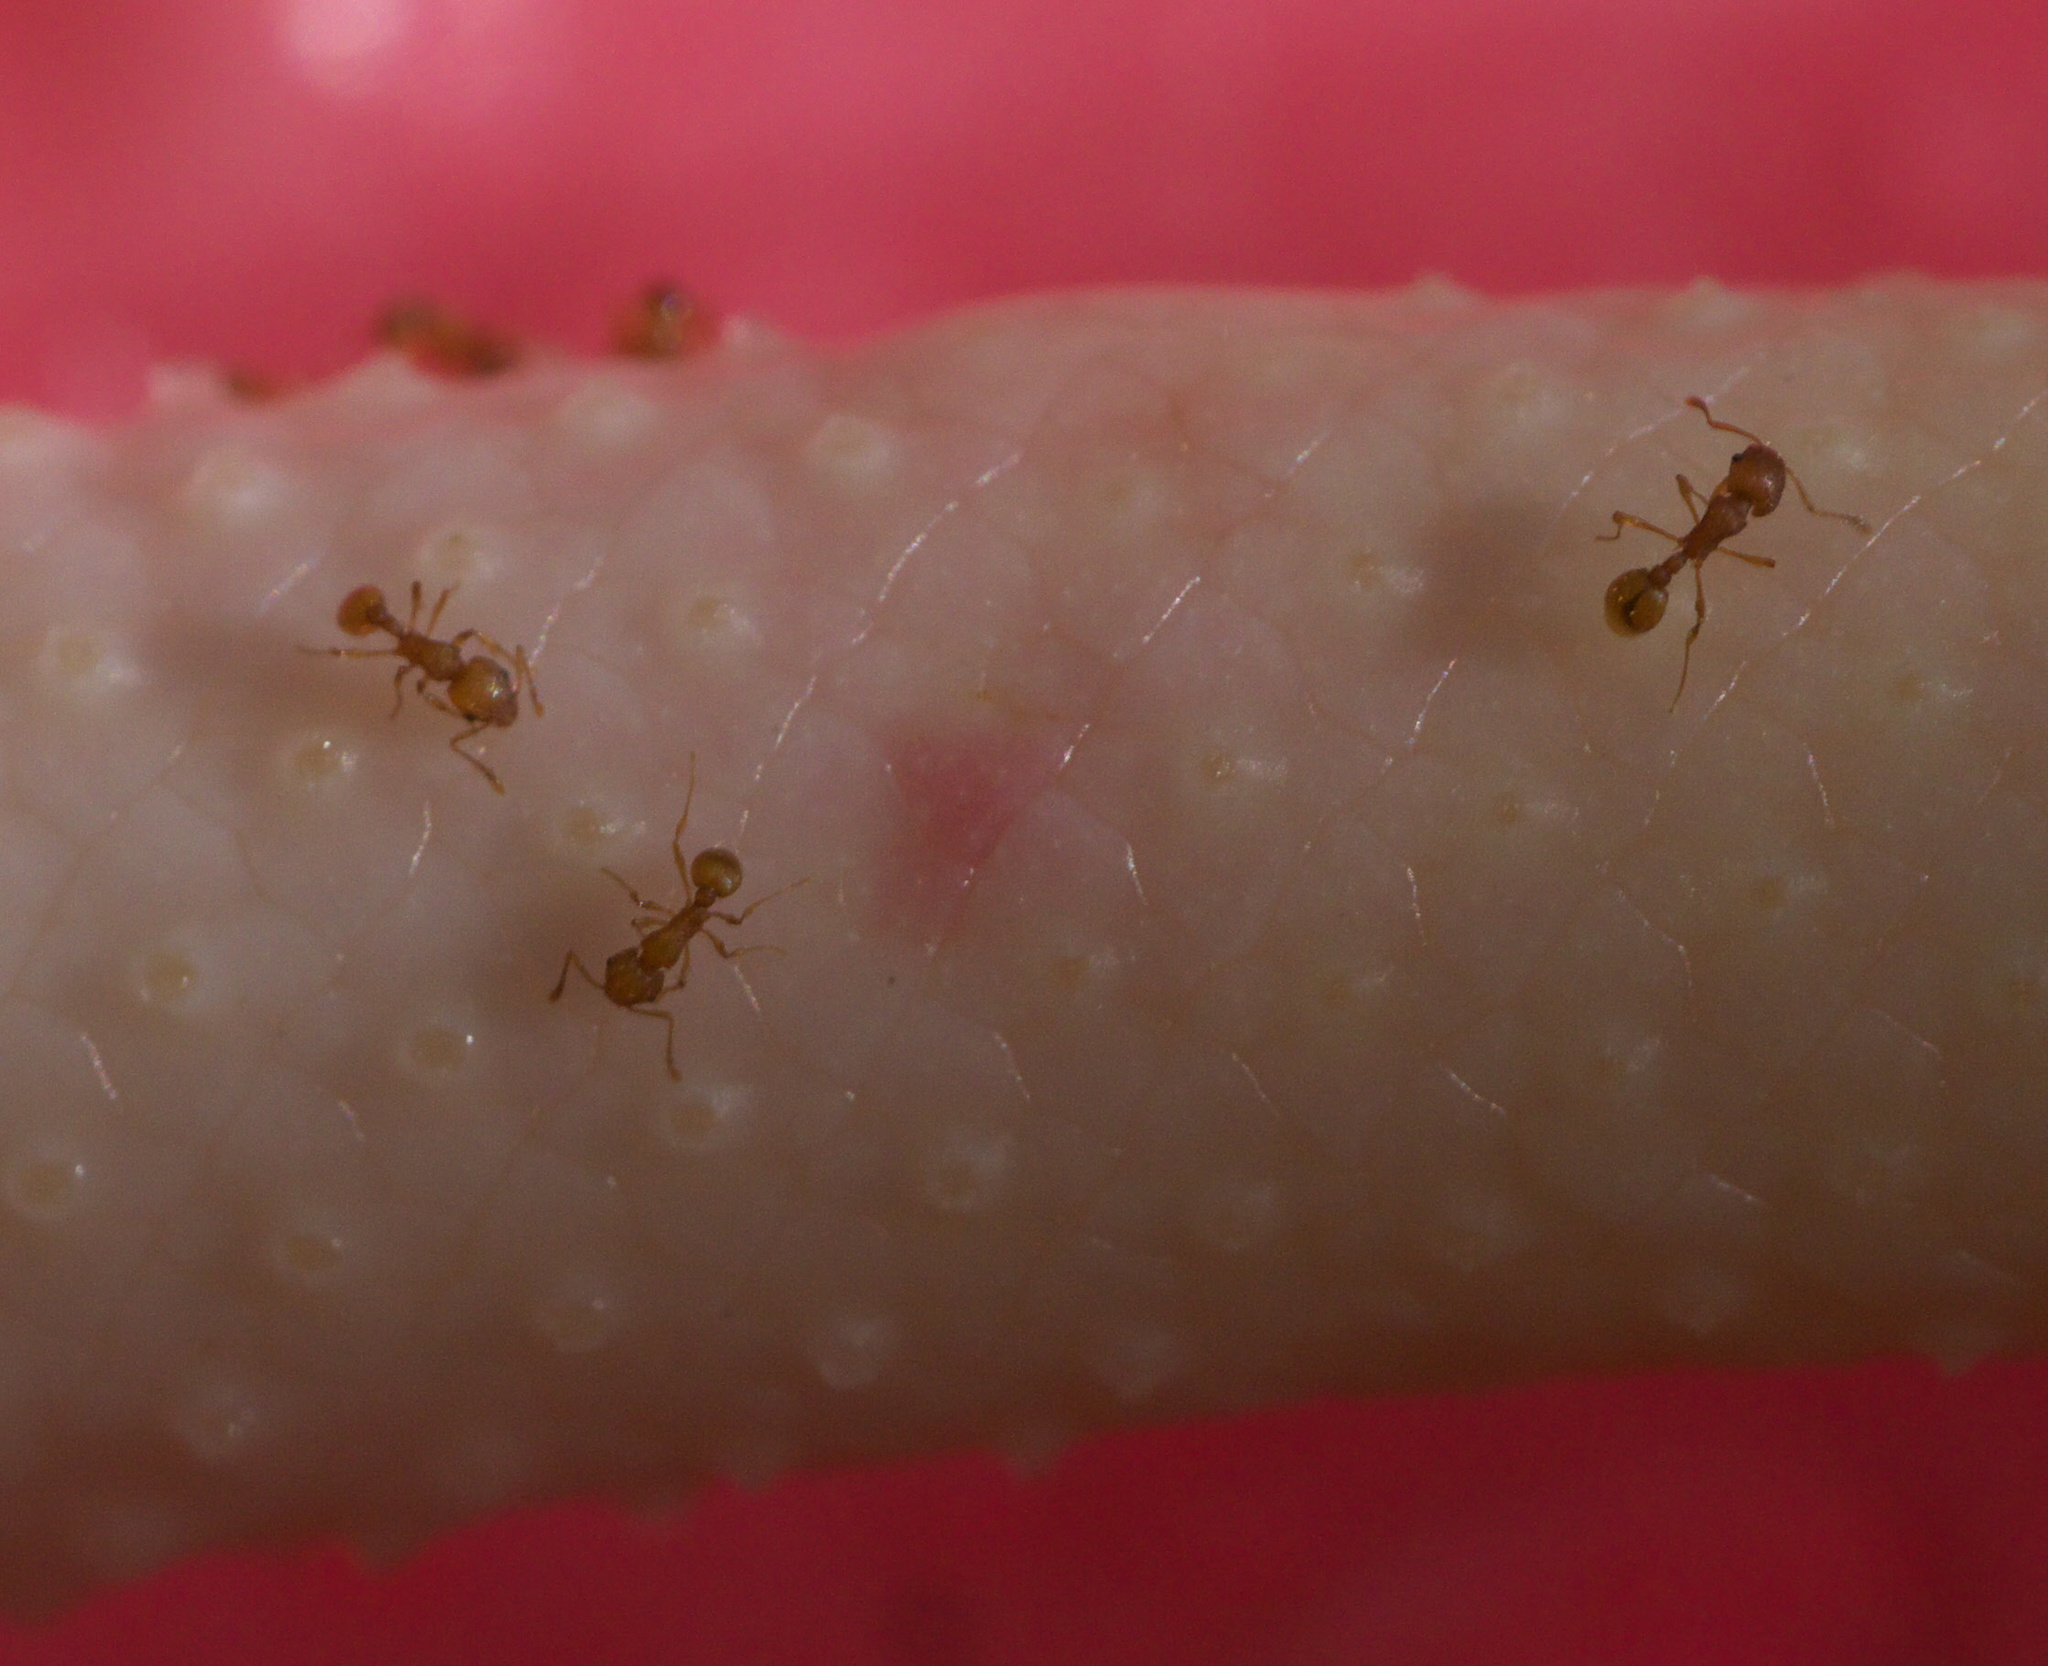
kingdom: Animalia
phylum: Arthropoda
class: Insecta
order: Hymenoptera
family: Formicidae
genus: Wasmannia
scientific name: Wasmannia auropunctata
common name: Little fire ant
